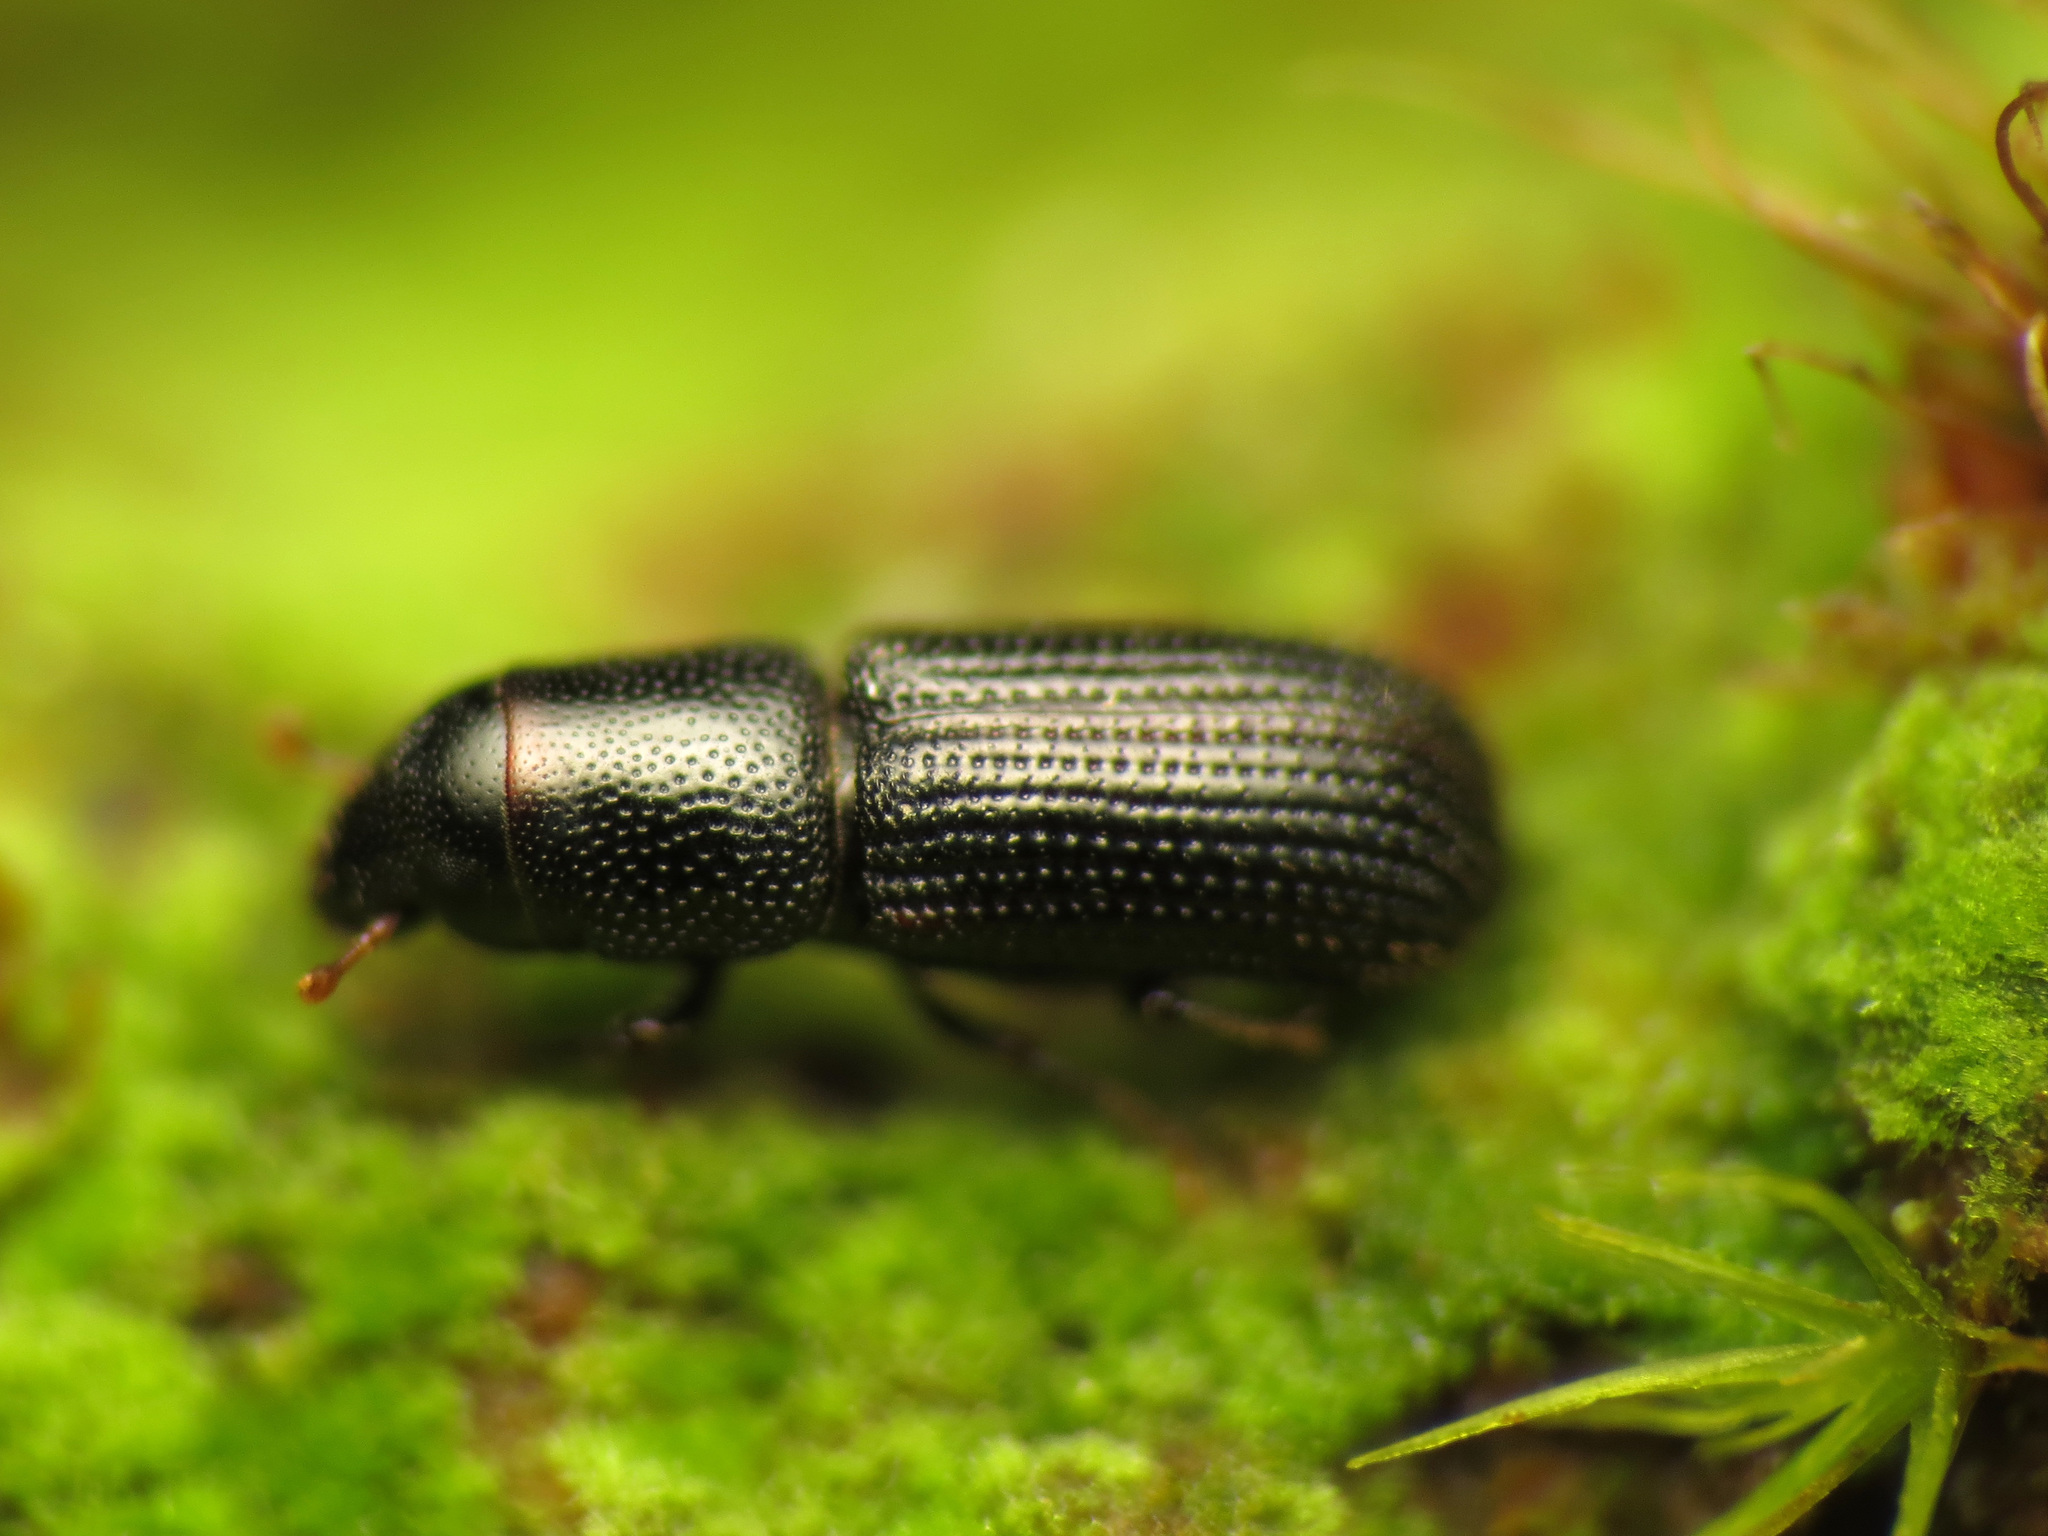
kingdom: Animalia
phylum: Arthropoda
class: Insecta
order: Coleoptera
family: Curculionidae
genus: Stenoscelis
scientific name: Stenoscelis andersoni
